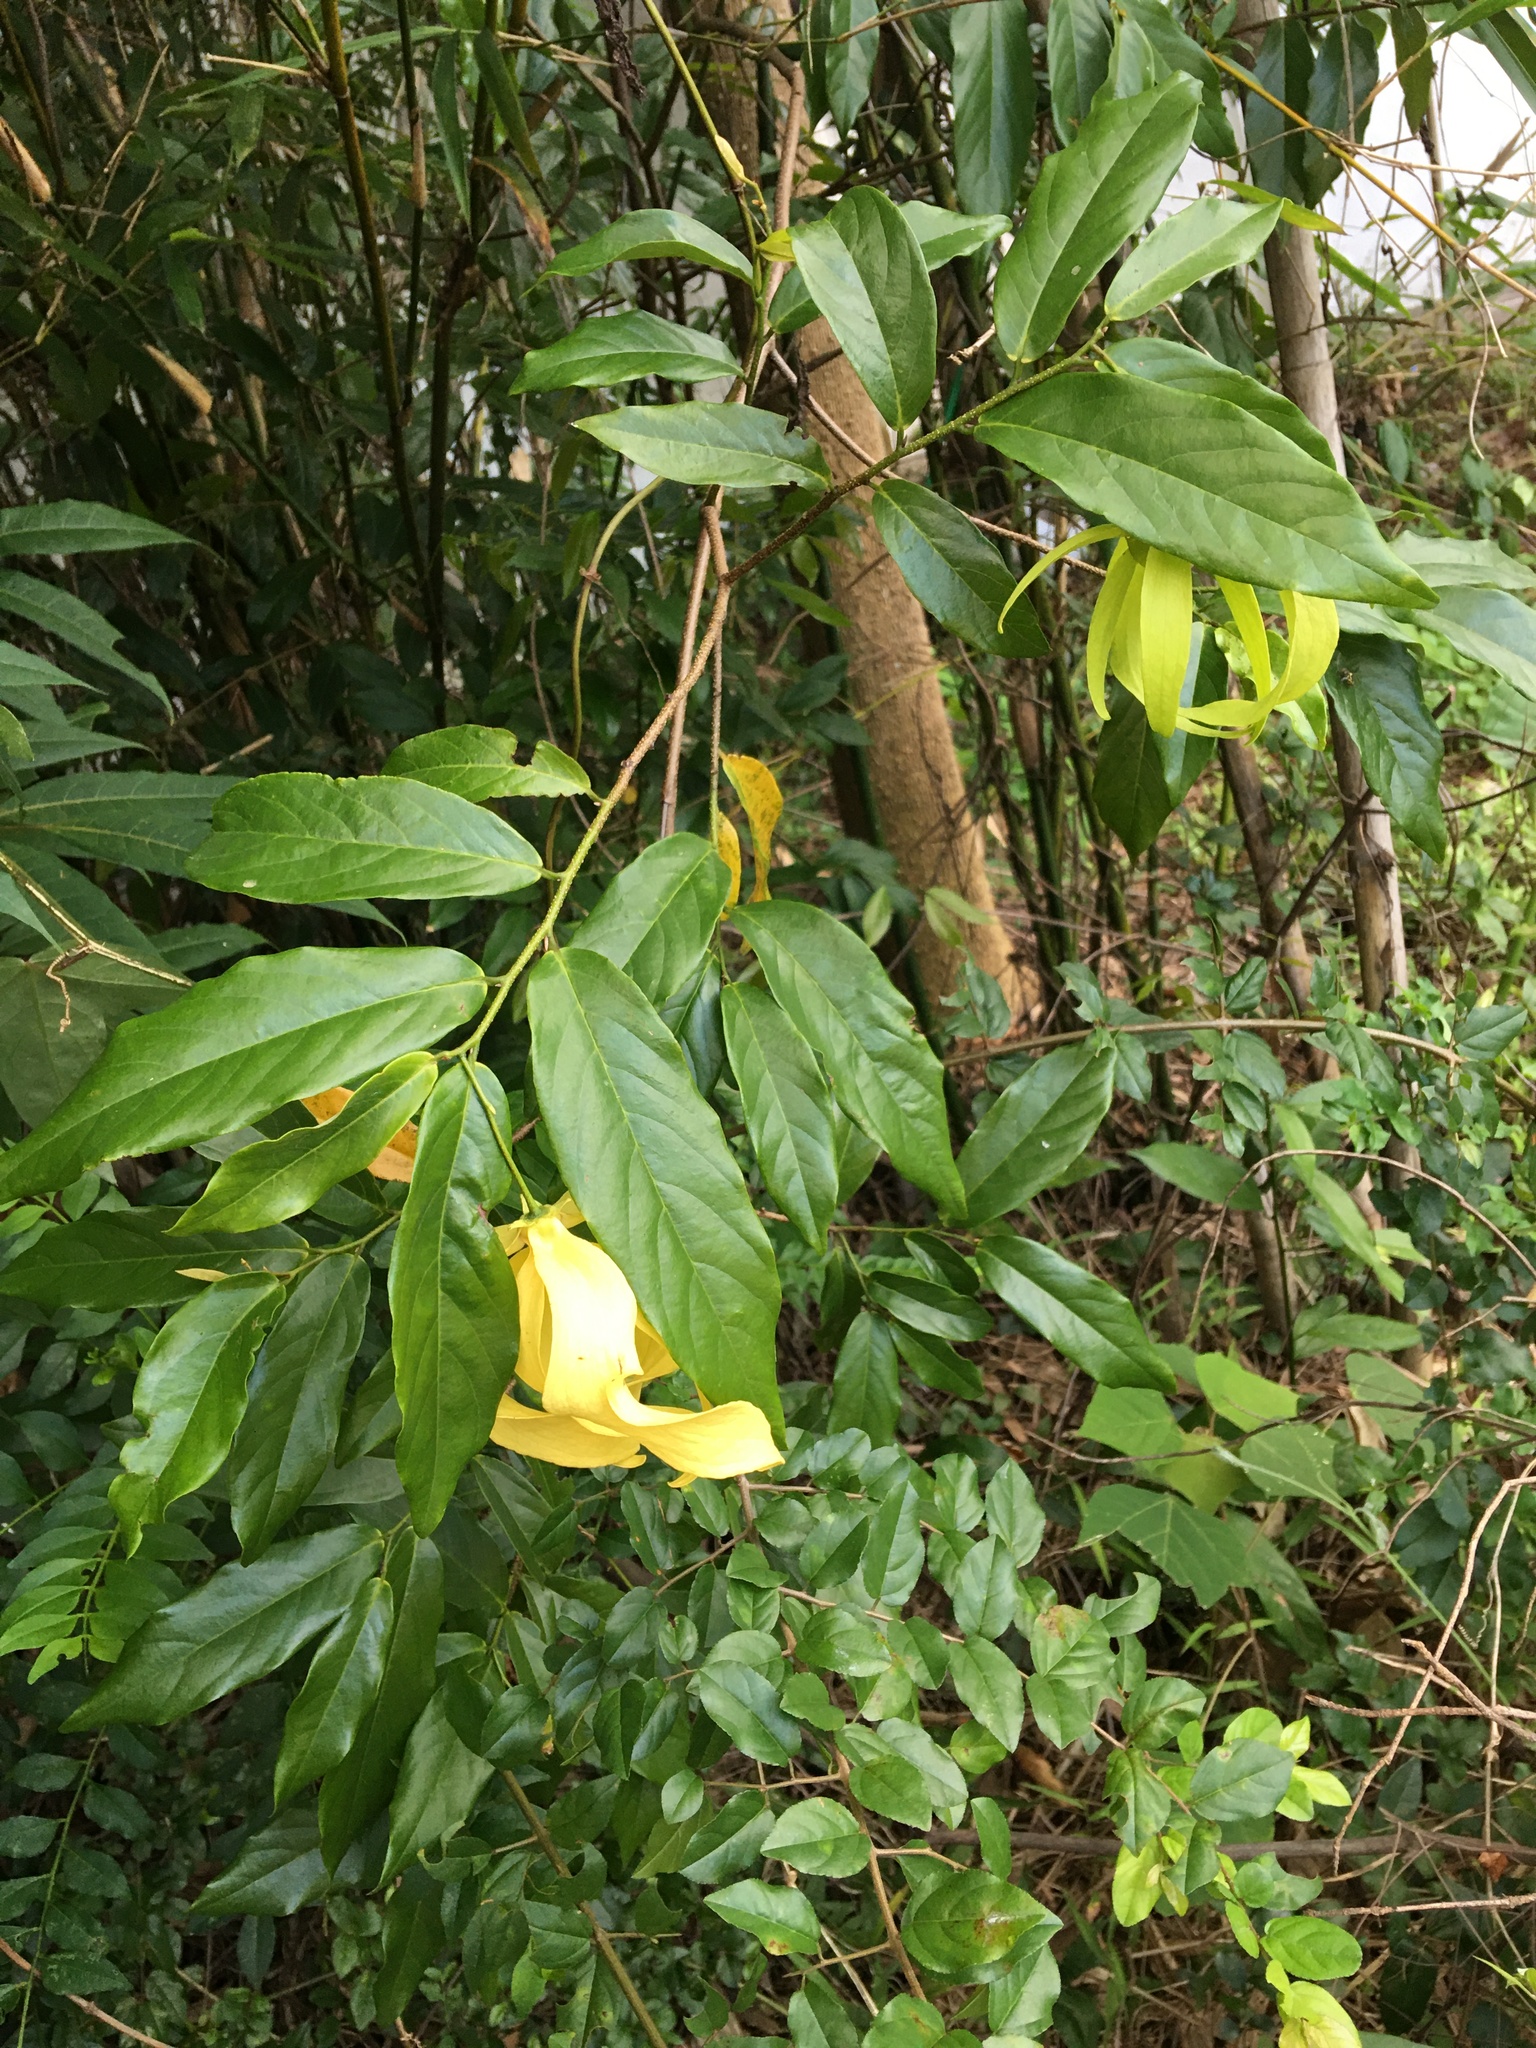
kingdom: Plantae
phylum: Tracheophyta
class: Magnoliopsida
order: Magnoliales
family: Annonaceae
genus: Desmos
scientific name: Desmos chinensis
